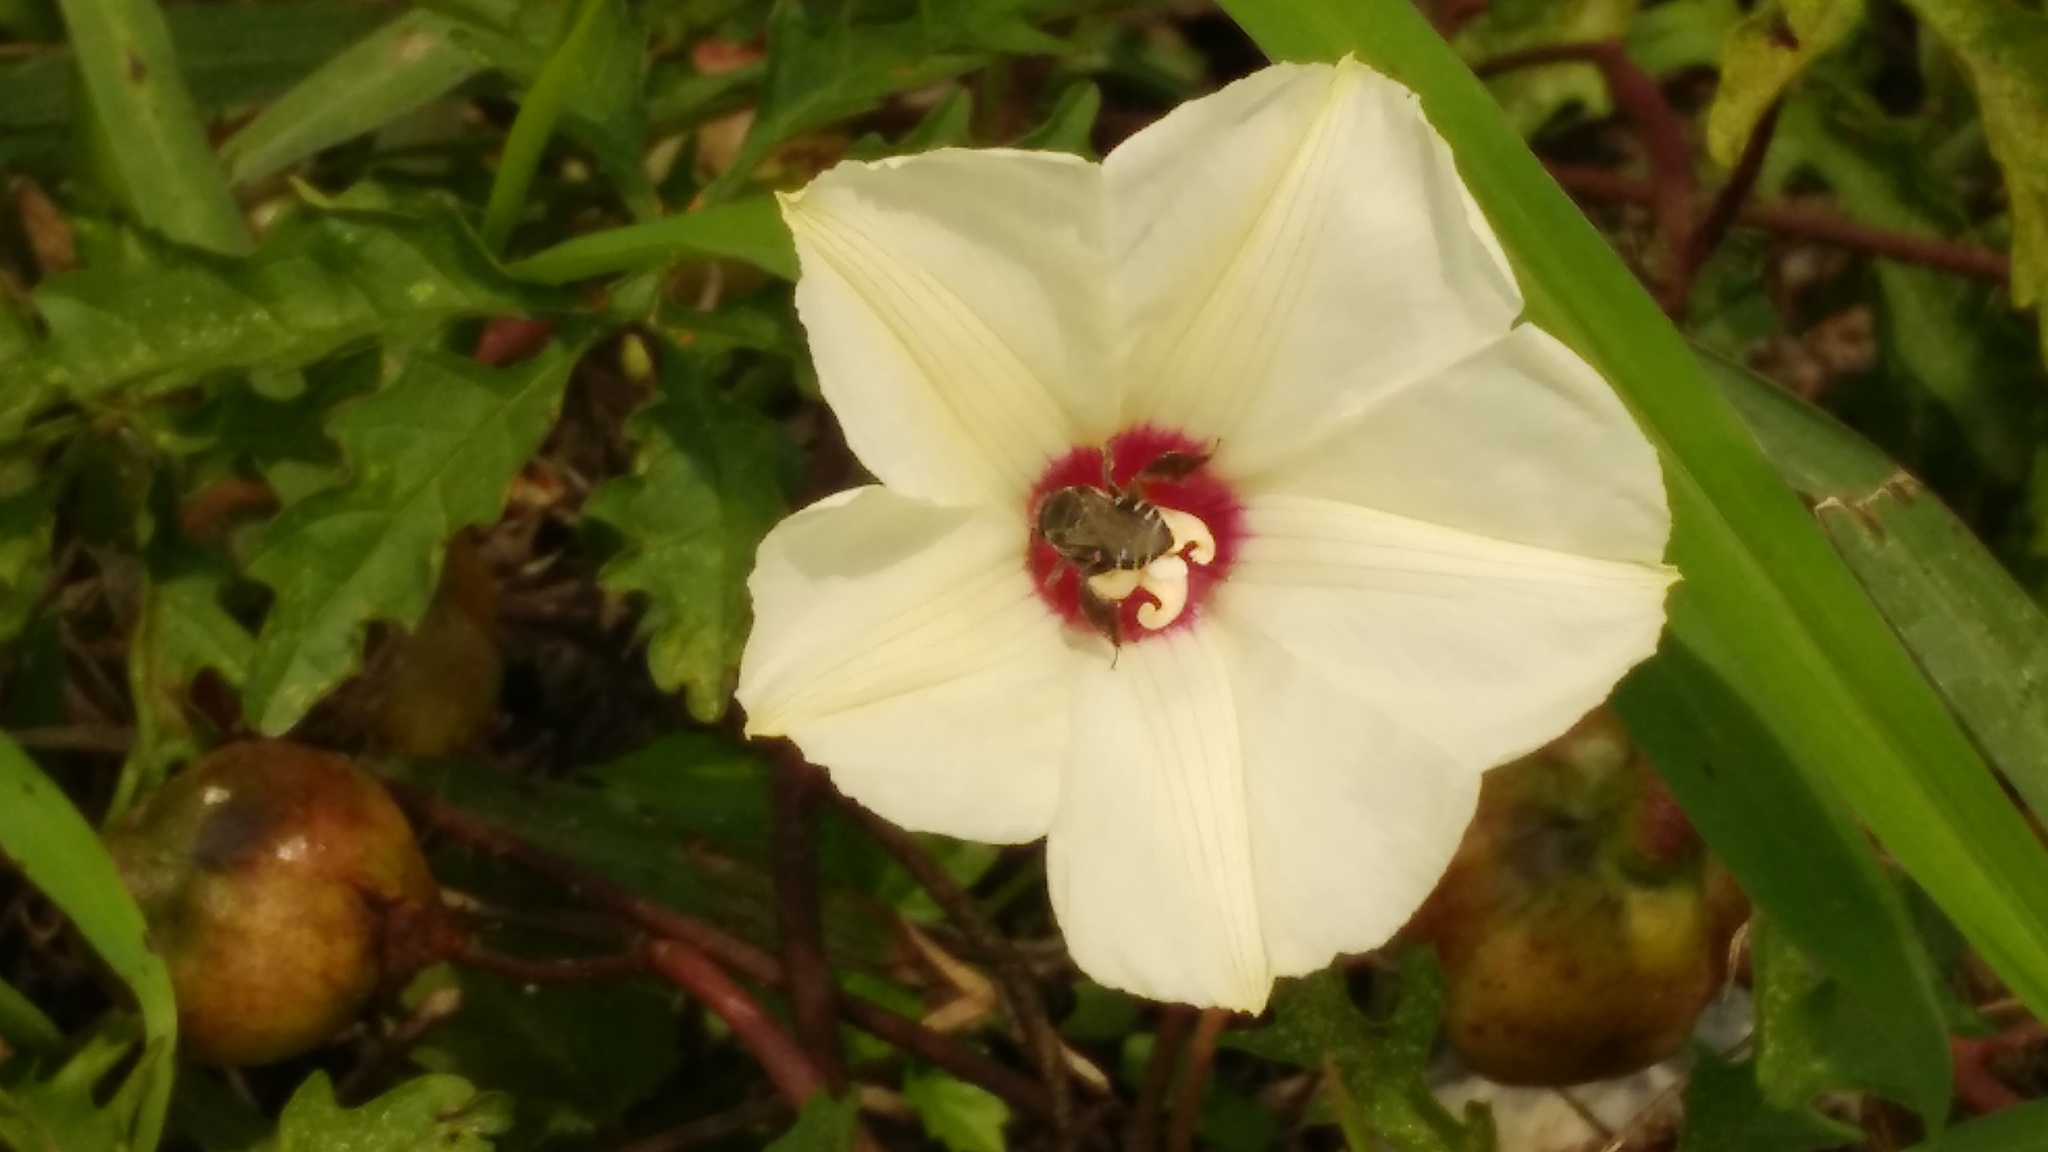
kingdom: Animalia
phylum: Arthropoda
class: Insecta
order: Hymenoptera
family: Apidae
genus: Ancyloscelis
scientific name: Ancyloscelis apiformis
